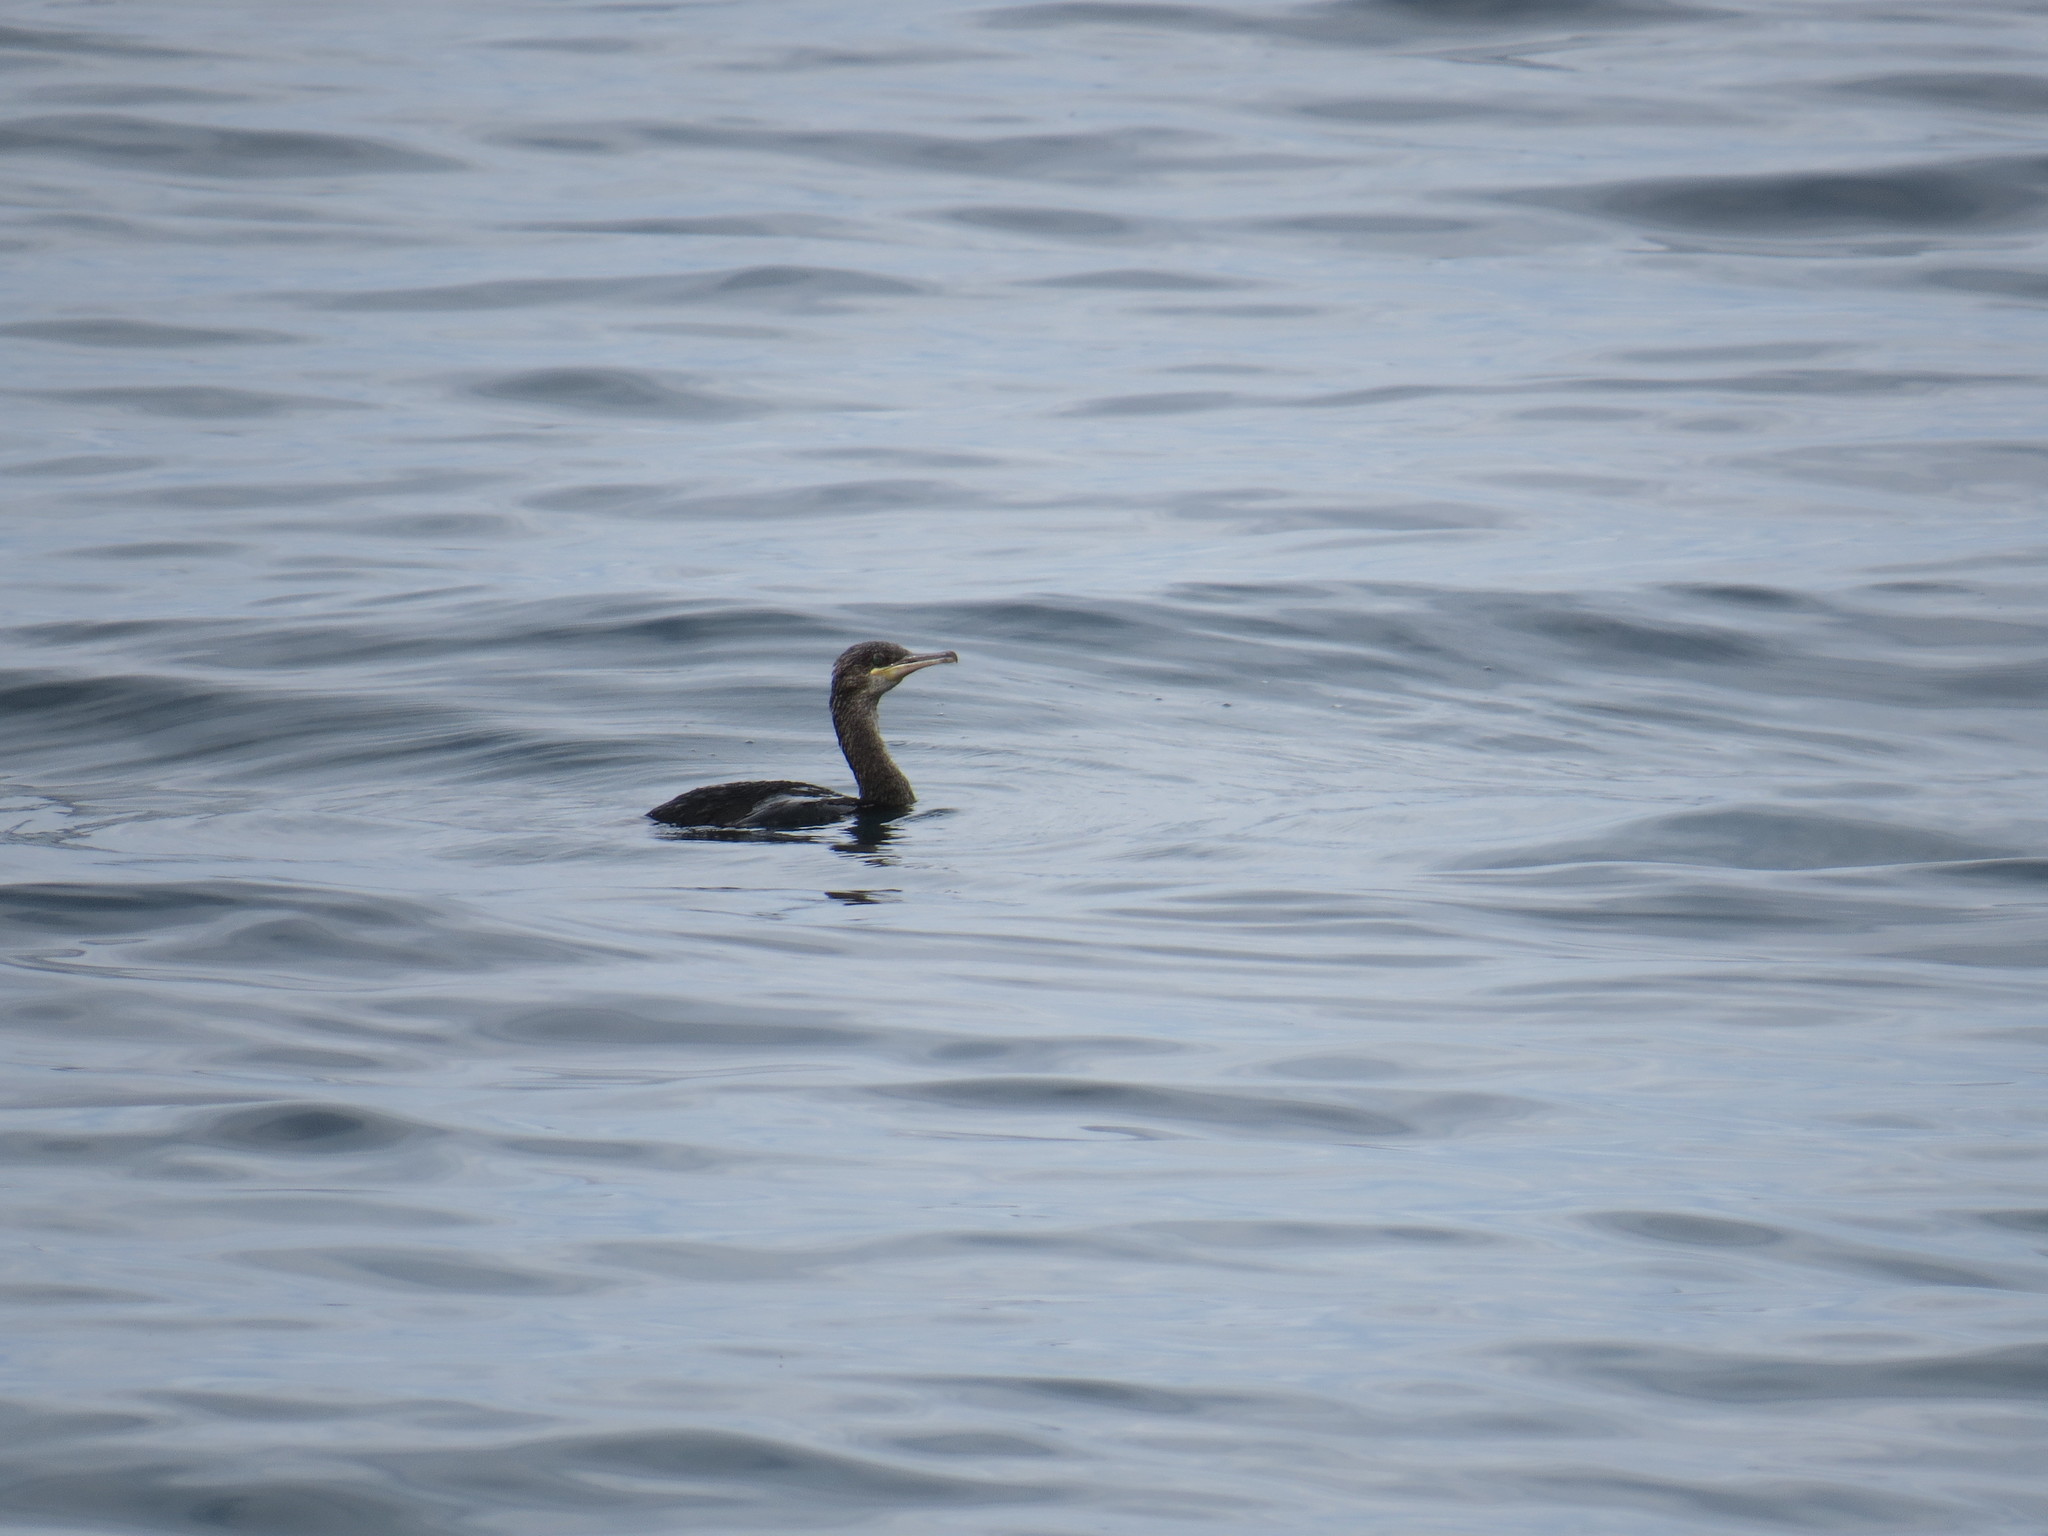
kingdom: Animalia
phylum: Chordata
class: Aves
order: Suliformes
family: Phalacrocoracidae
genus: Phalacrocorax
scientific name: Phalacrocorax aristotelis
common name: European shag
